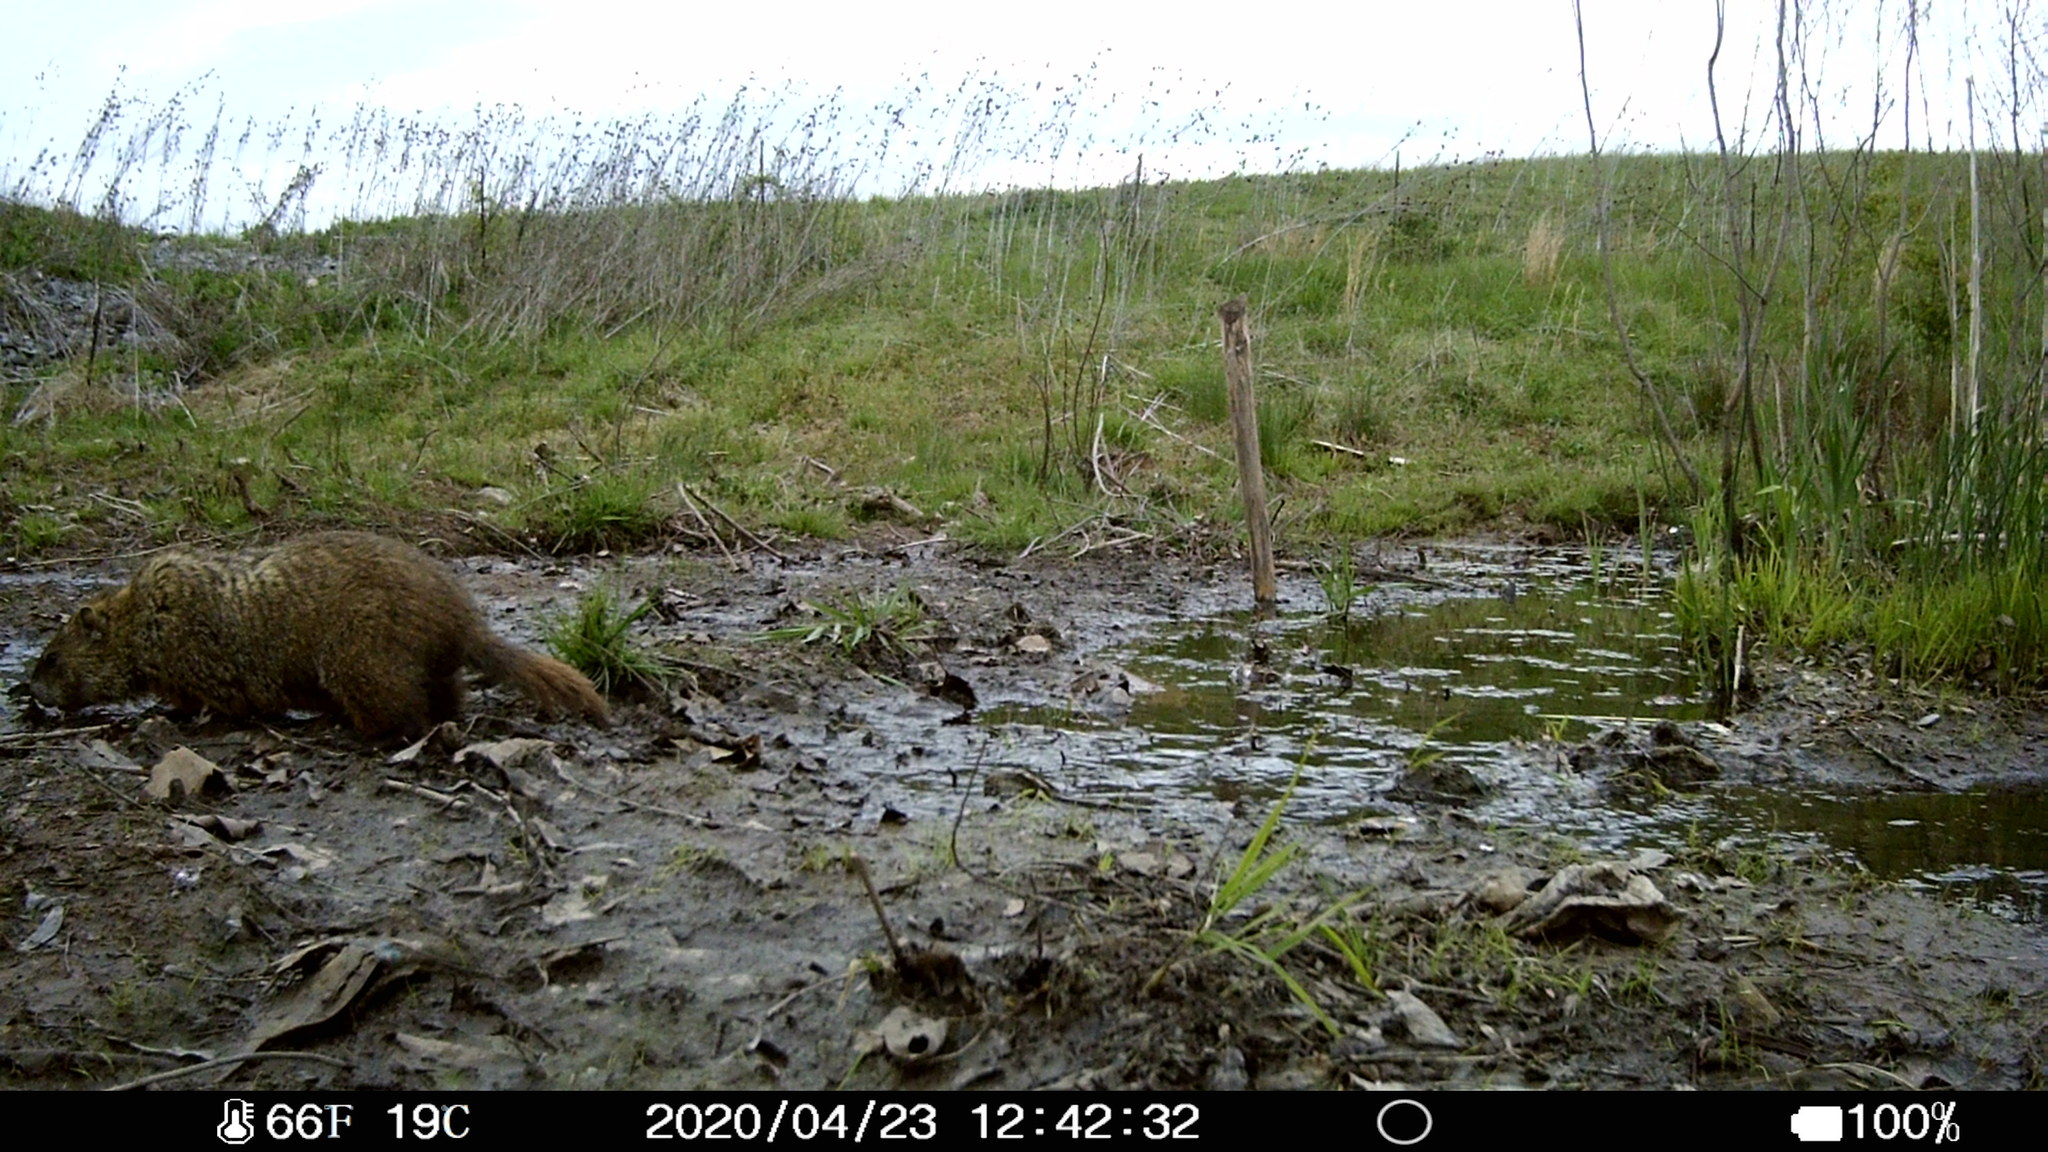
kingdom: Animalia
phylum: Chordata
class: Mammalia
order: Rodentia
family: Sciuridae
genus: Marmota
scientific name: Marmota monax
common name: Groundhog
